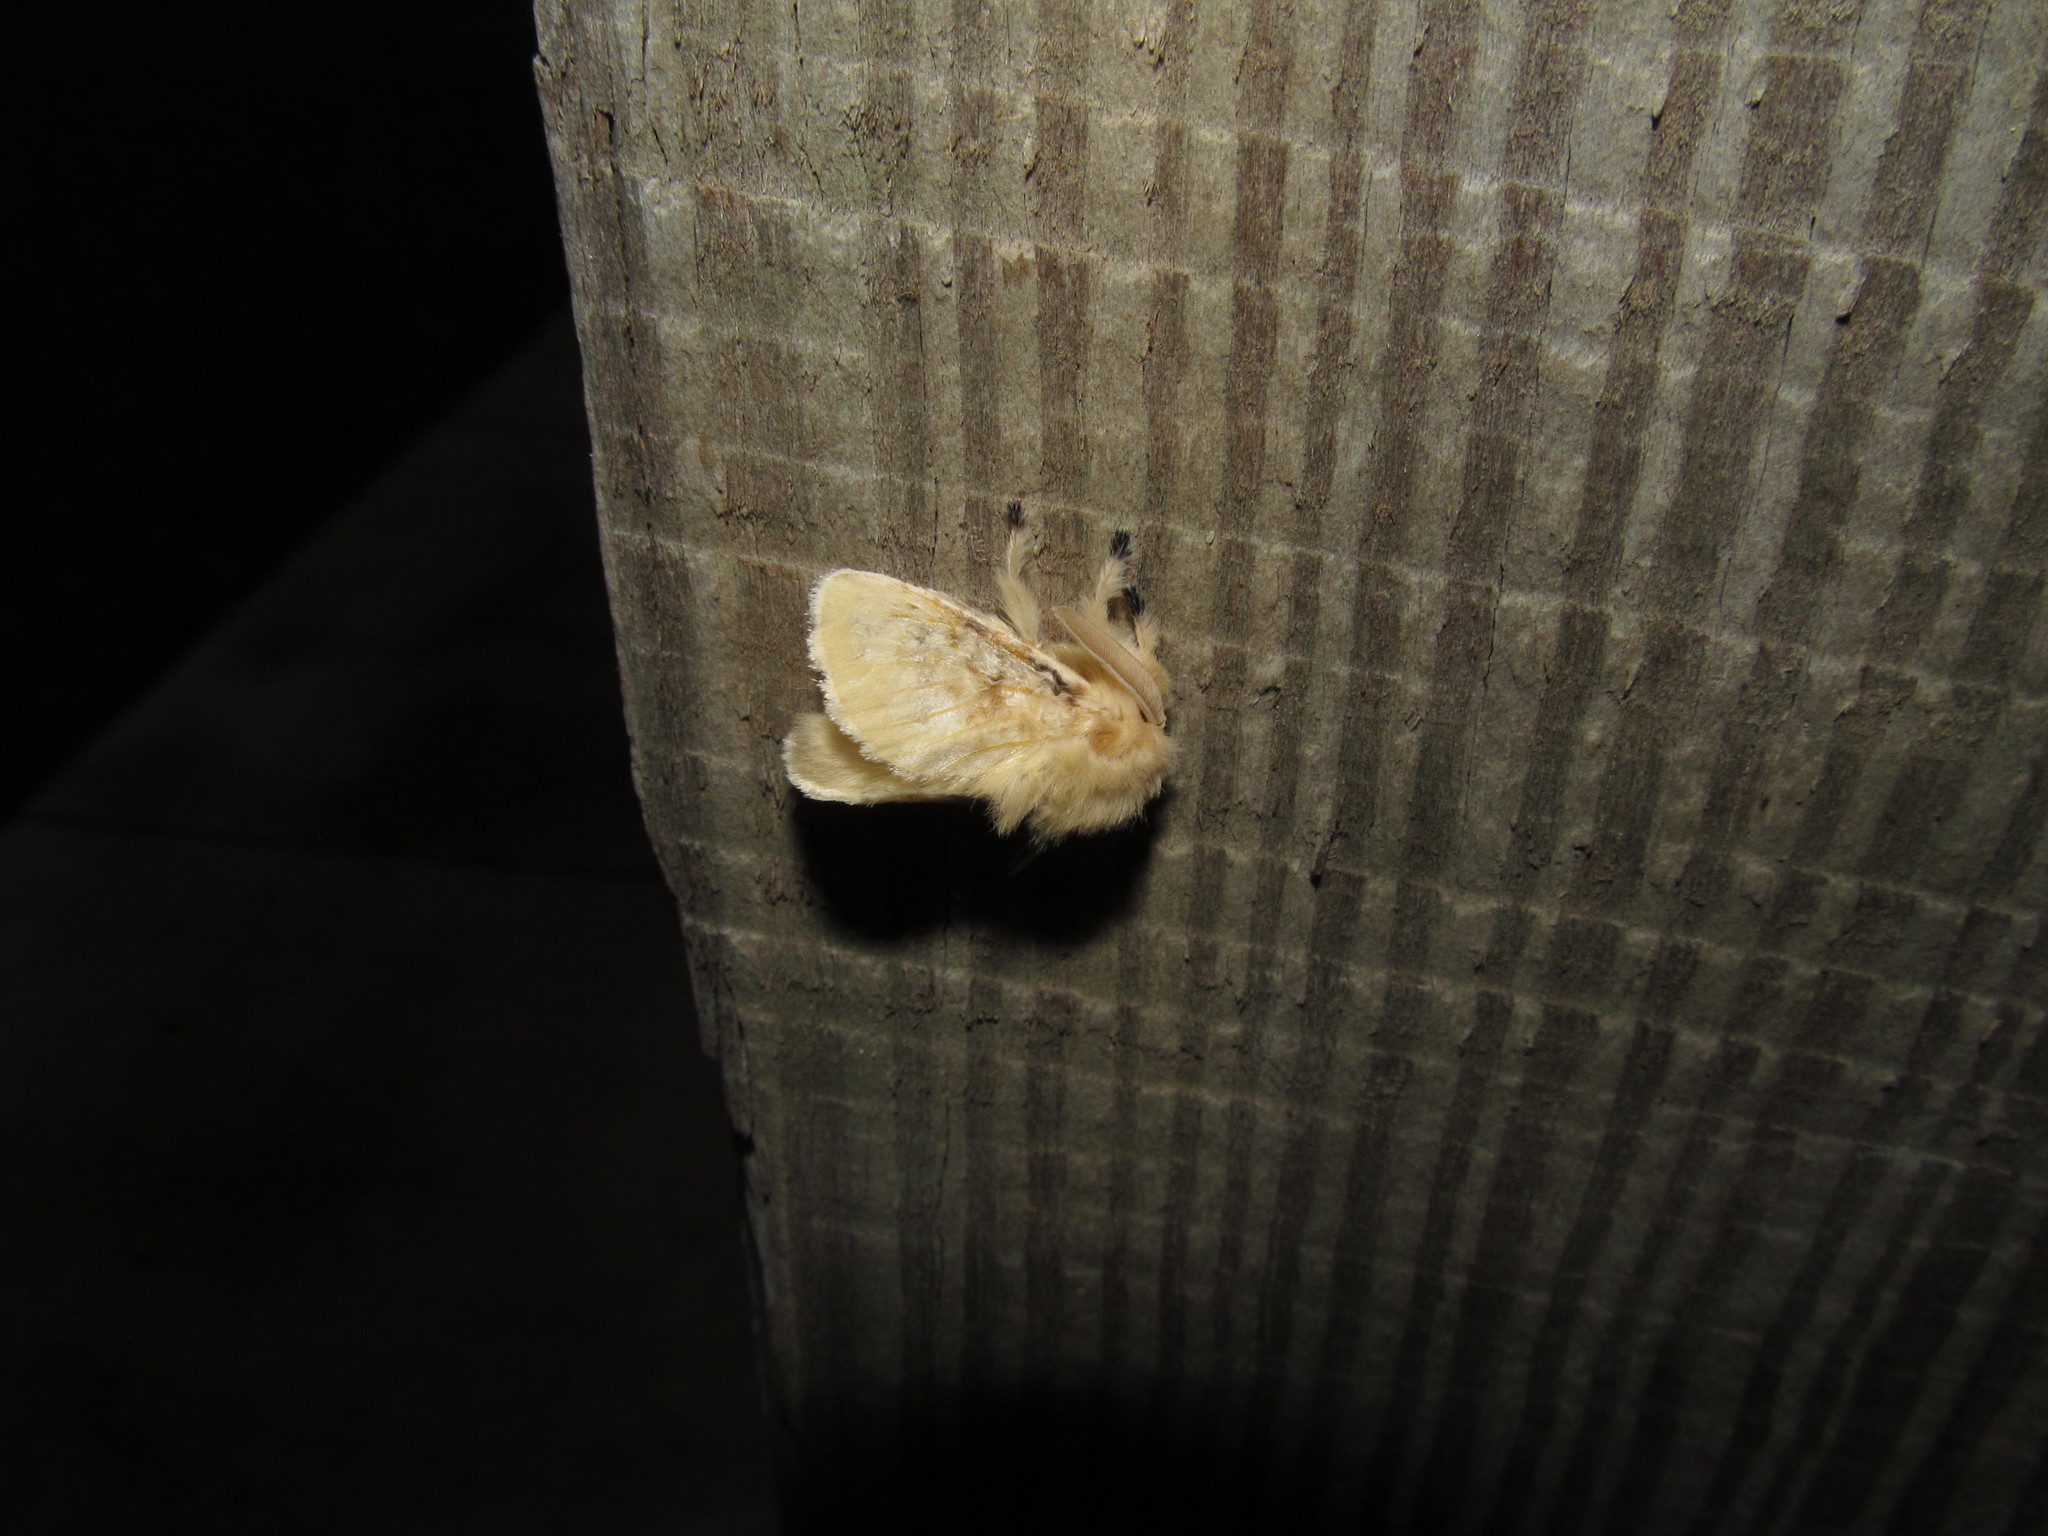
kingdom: Animalia
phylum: Arthropoda
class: Insecta
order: Lepidoptera
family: Megalopygidae
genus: Megalopyge
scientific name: Megalopyge crispata
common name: Black-waved flannel moth
